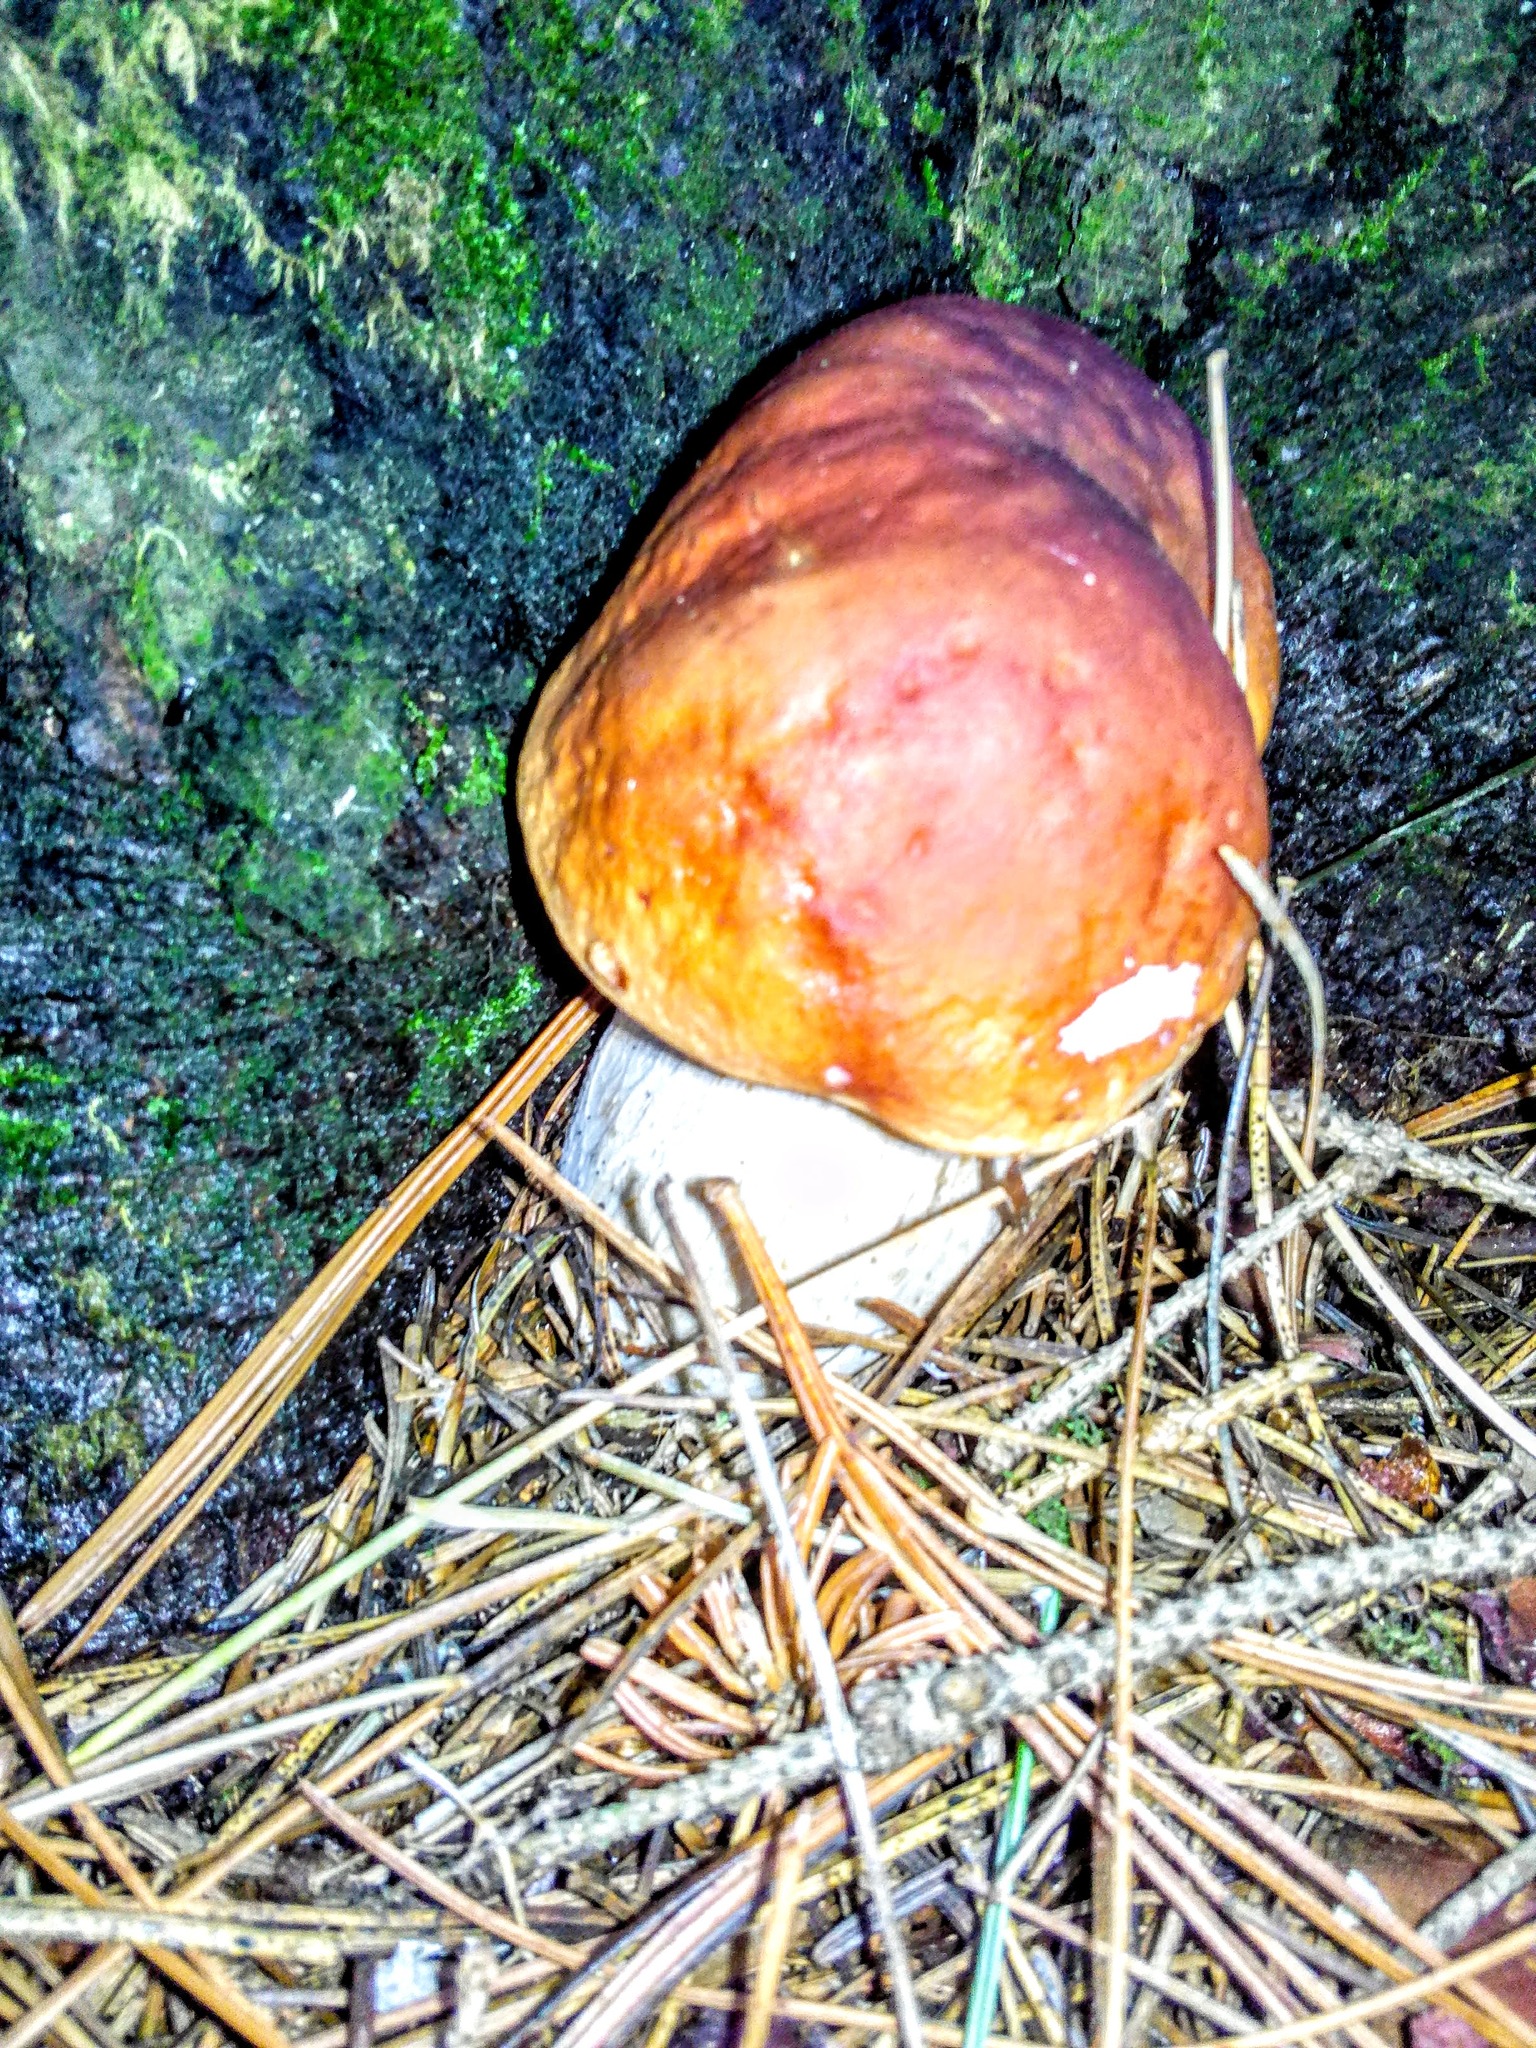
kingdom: Fungi
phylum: Basidiomycota
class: Agaricomycetes
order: Boletales
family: Boletaceae
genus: Boletus
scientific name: Boletus edulis
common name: Cep
